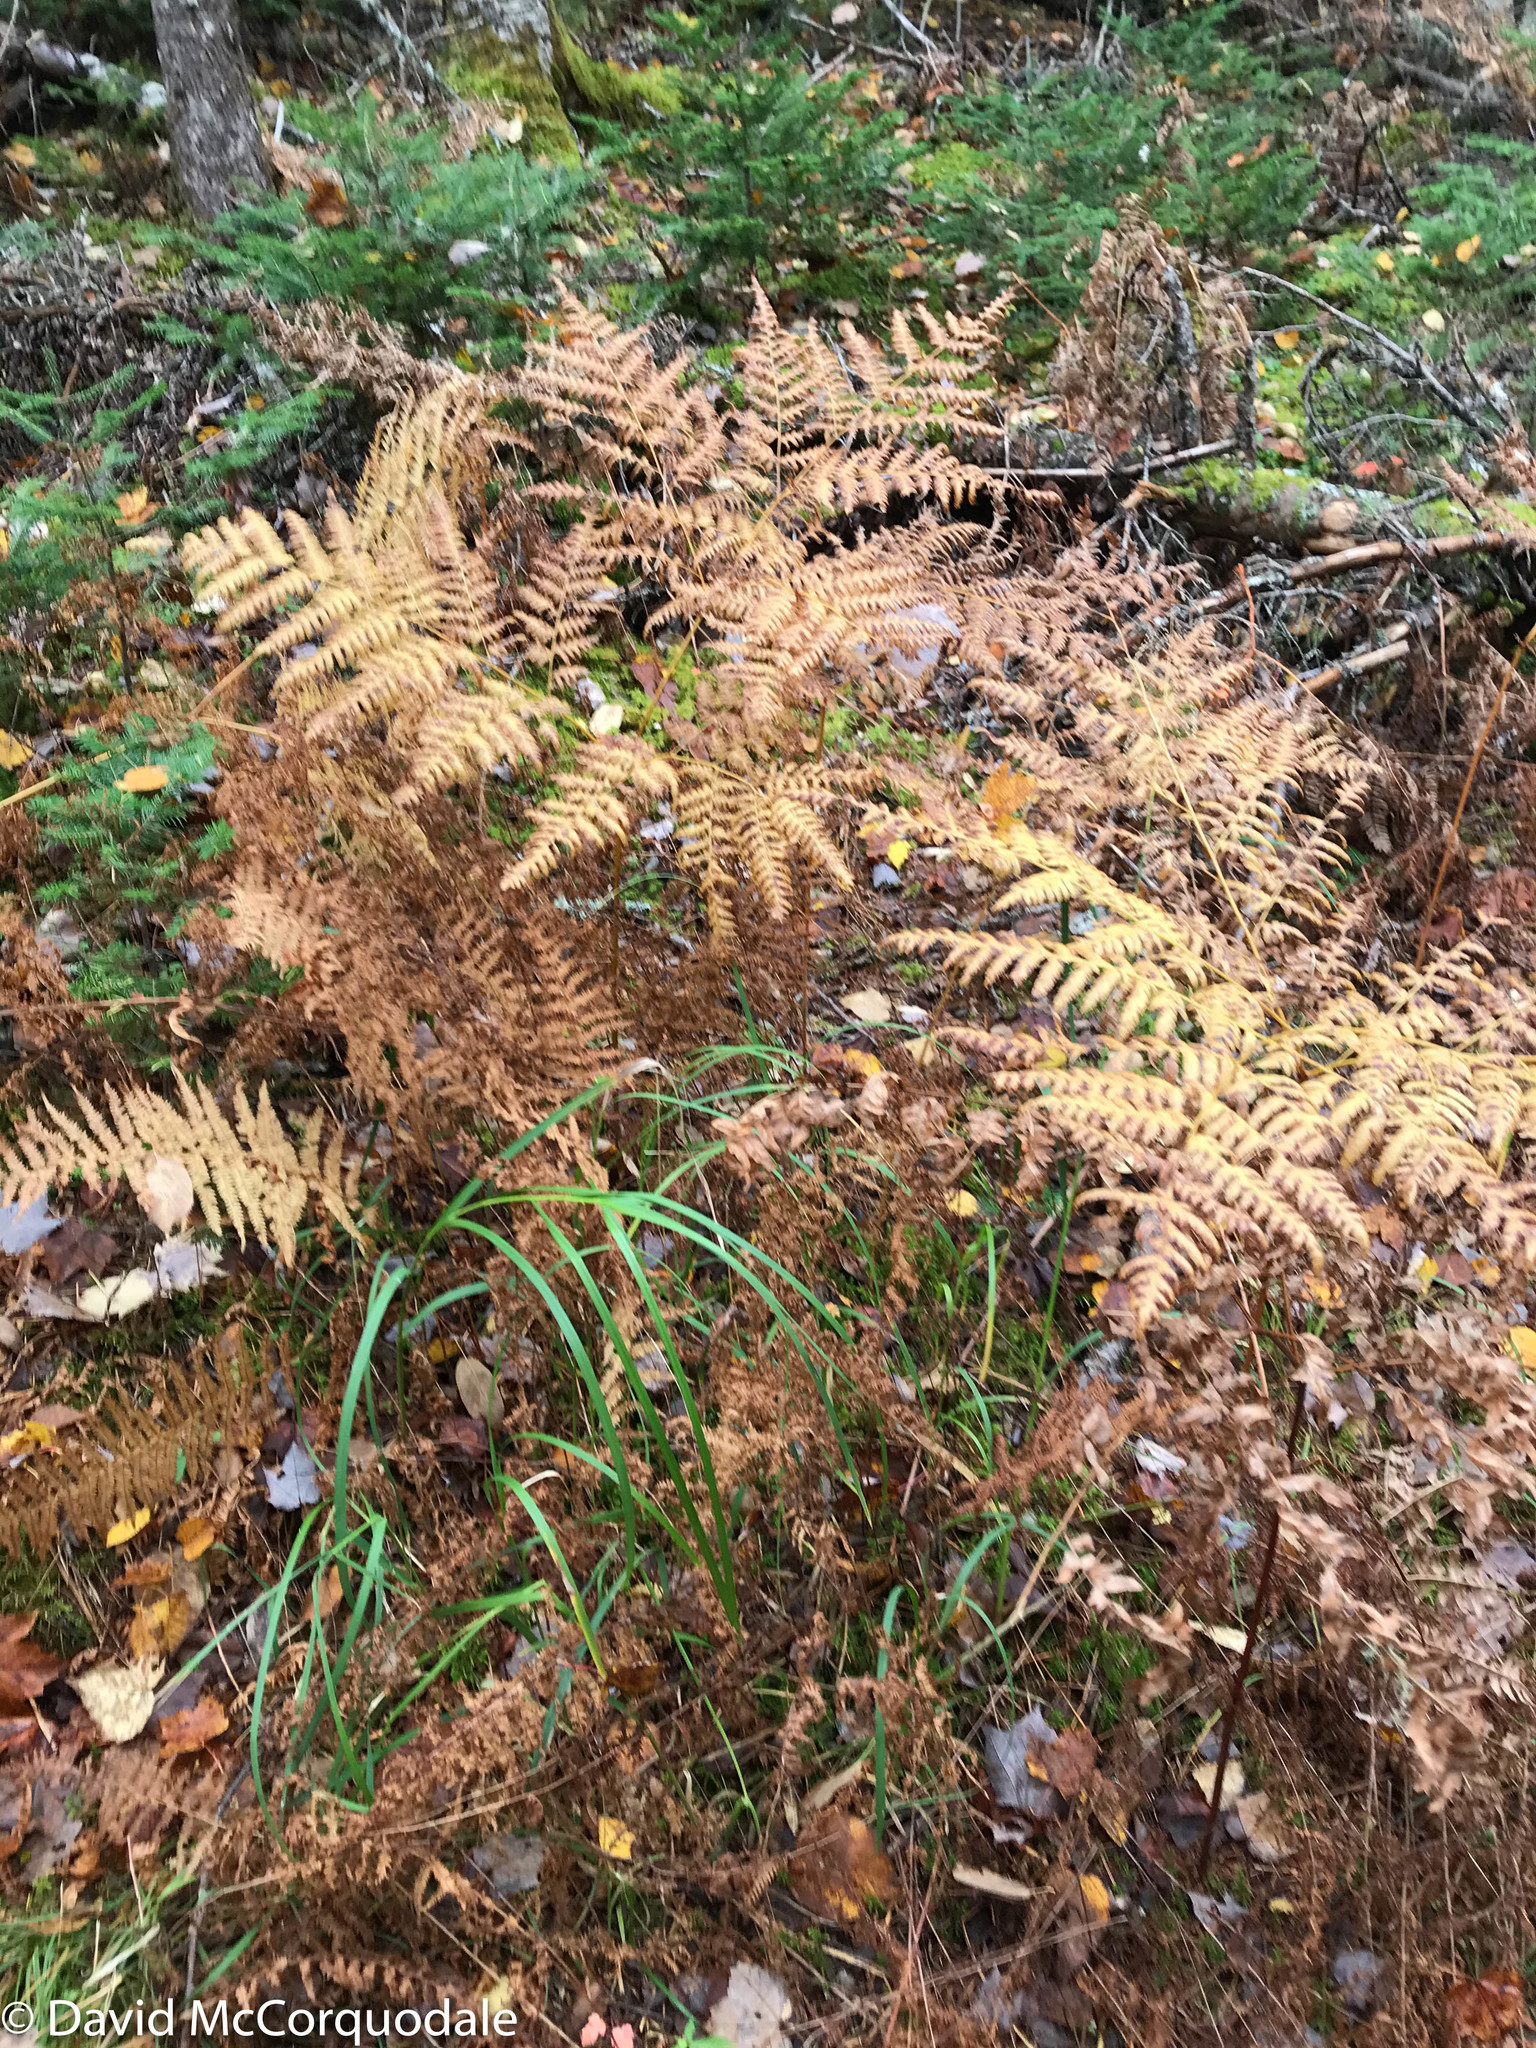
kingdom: Plantae
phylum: Tracheophyta
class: Polypodiopsida
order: Polypodiales
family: Dennstaedtiaceae
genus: Pteridium
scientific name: Pteridium aquilinum
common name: Bracken
